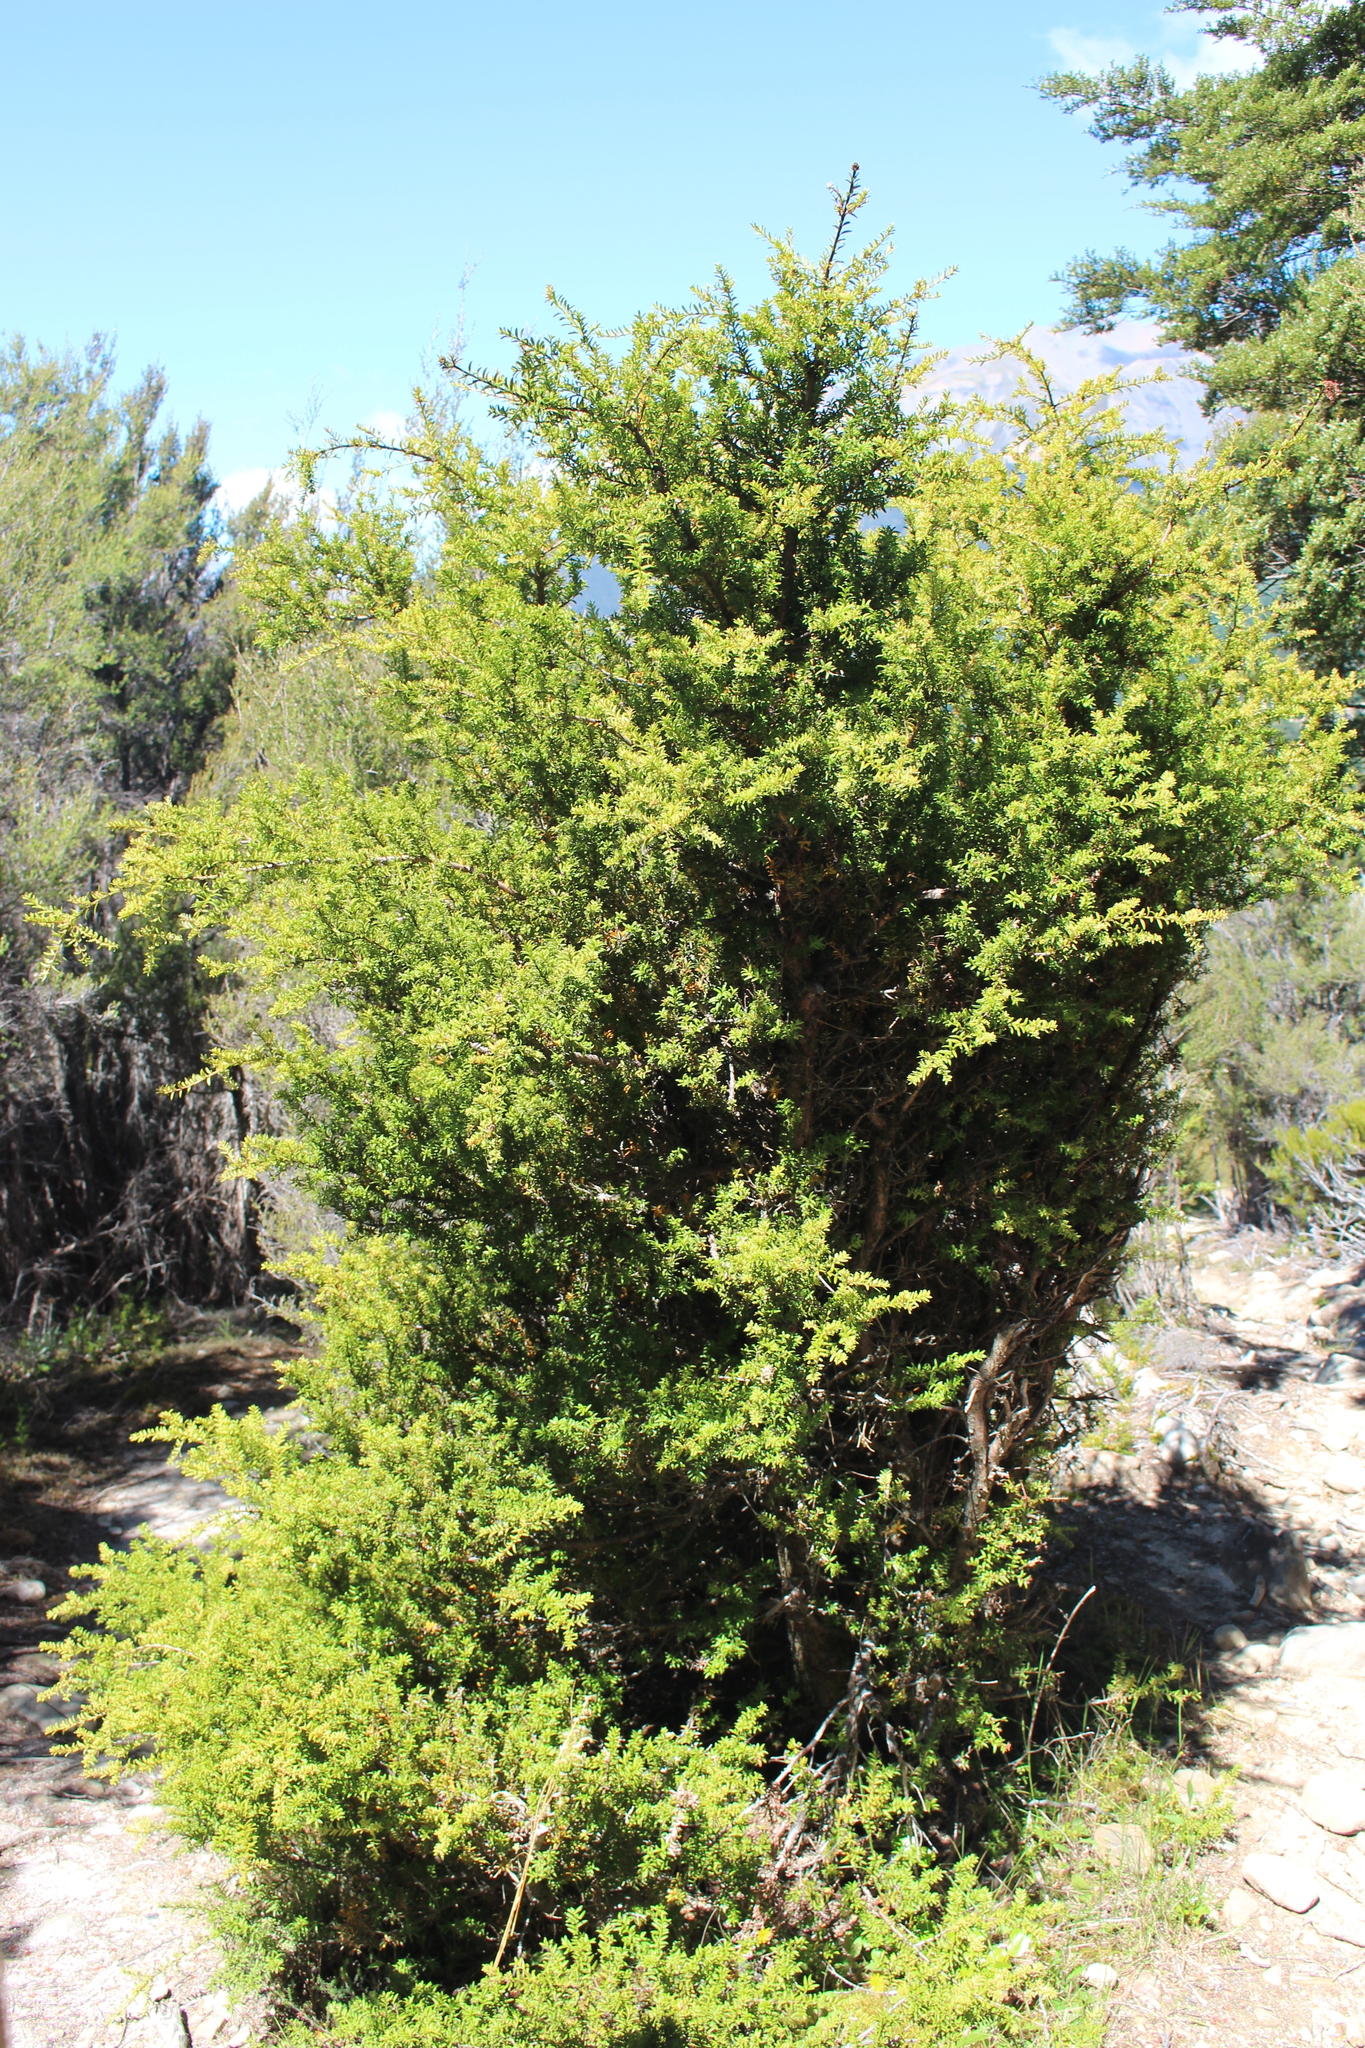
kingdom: Plantae
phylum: Tracheophyta
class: Pinopsida
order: Pinales
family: Podocarpaceae
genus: Podocarpus
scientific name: Podocarpus laetus
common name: Hall's totara
